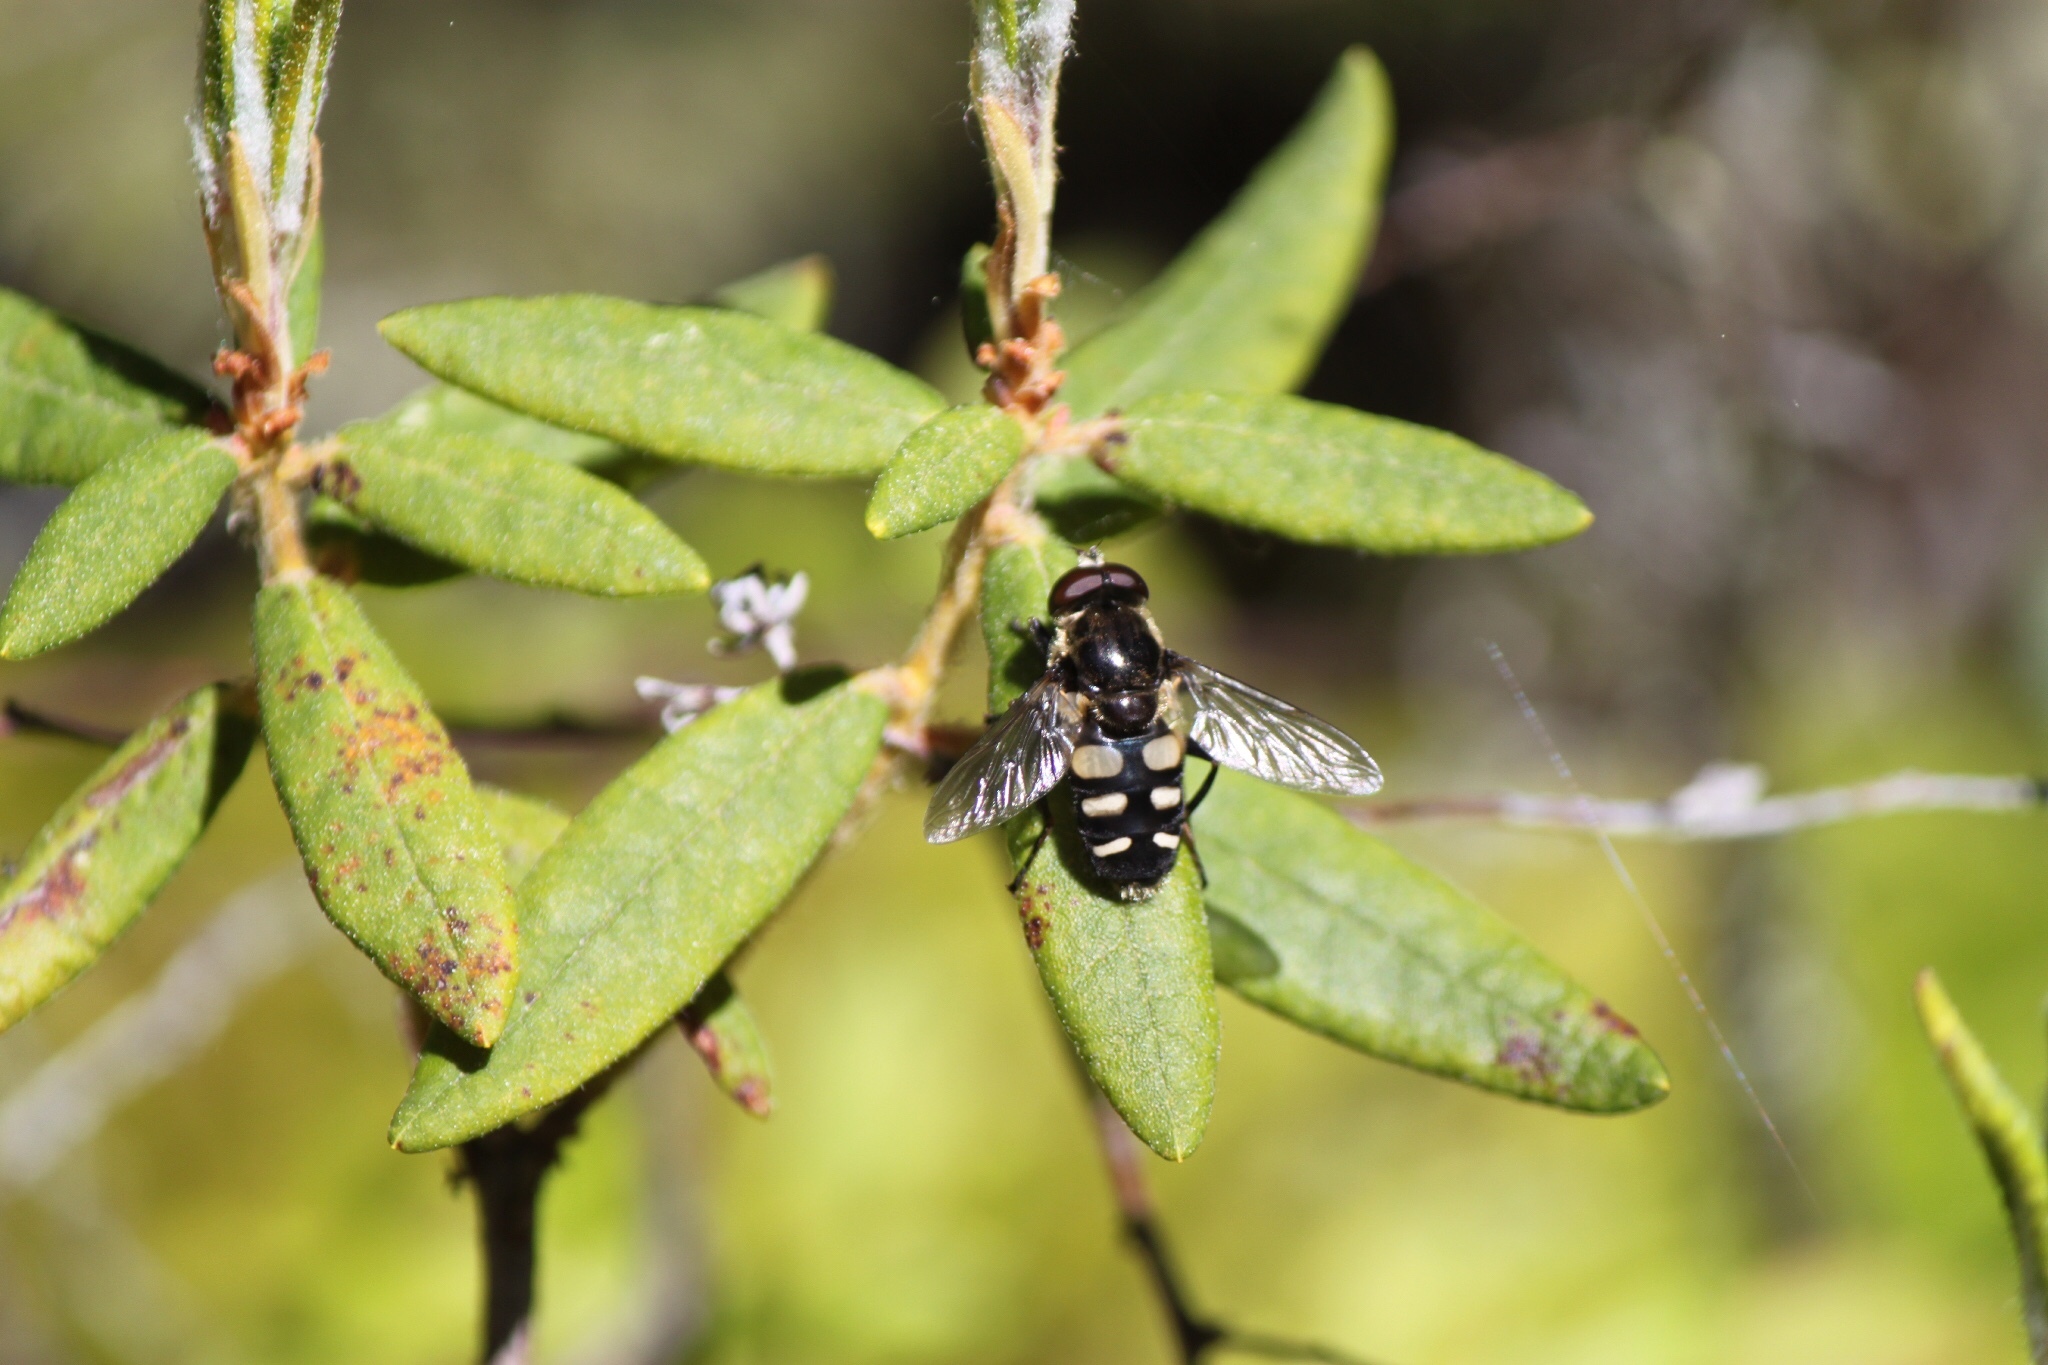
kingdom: Animalia
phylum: Arthropoda
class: Insecta
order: Diptera
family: Syrphidae
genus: Sericomyia
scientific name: Sericomyia transversa
